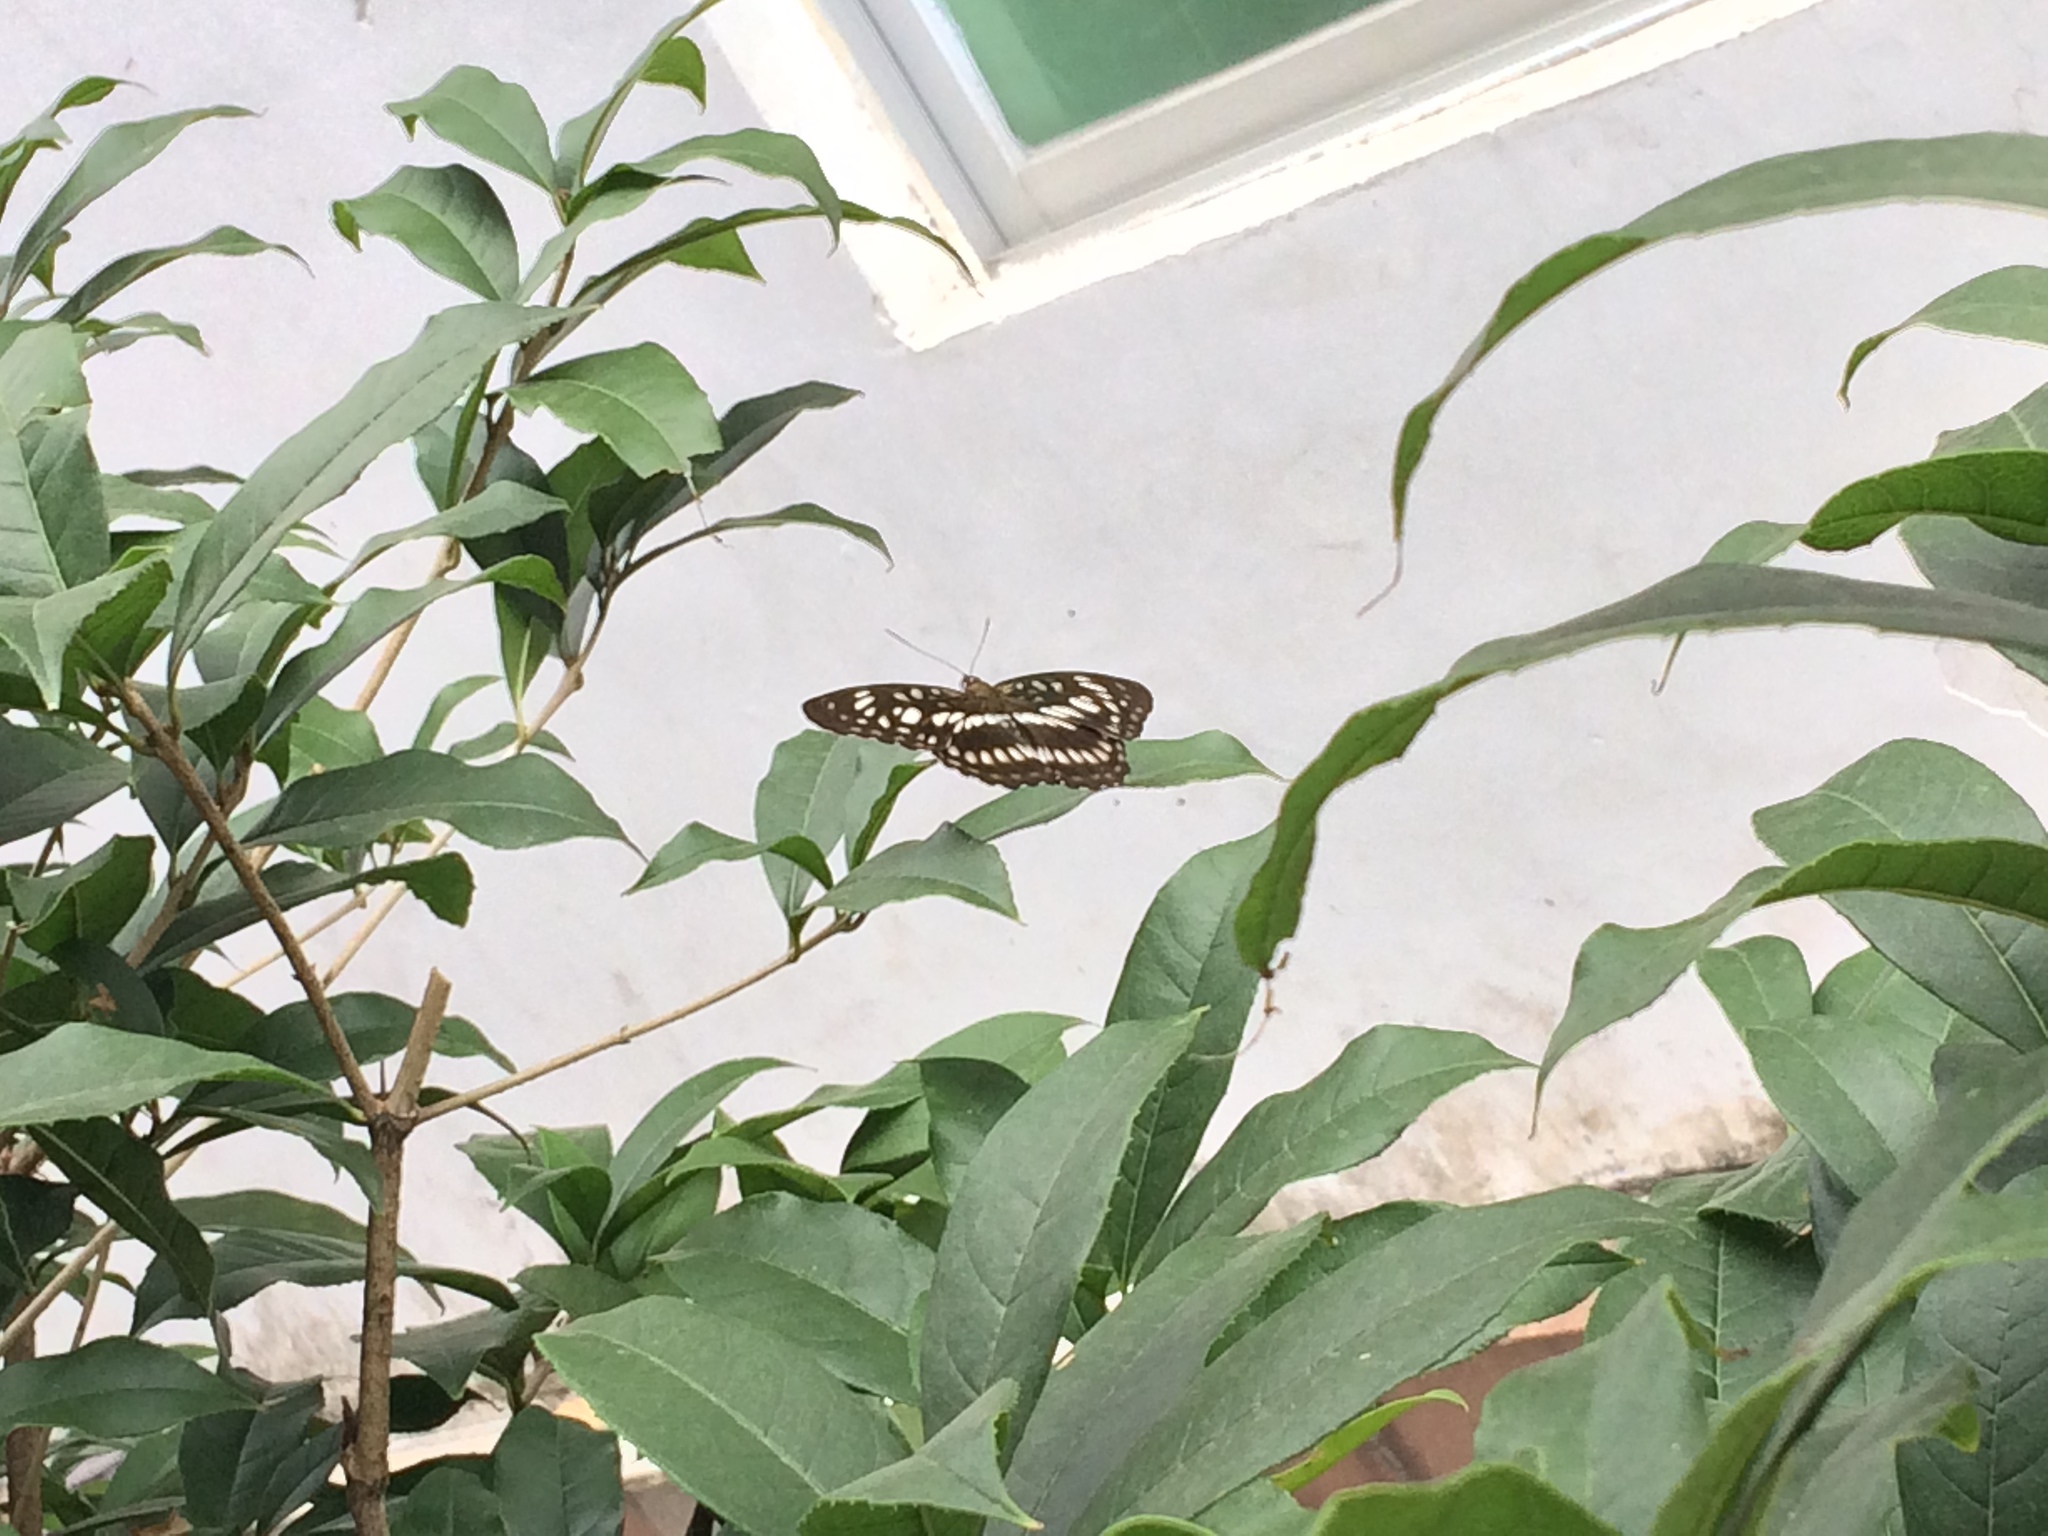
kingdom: Animalia
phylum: Arthropoda
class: Insecta
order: Lepidoptera
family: Nymphalidae
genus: Parathyma
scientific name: Parathyma ranga
